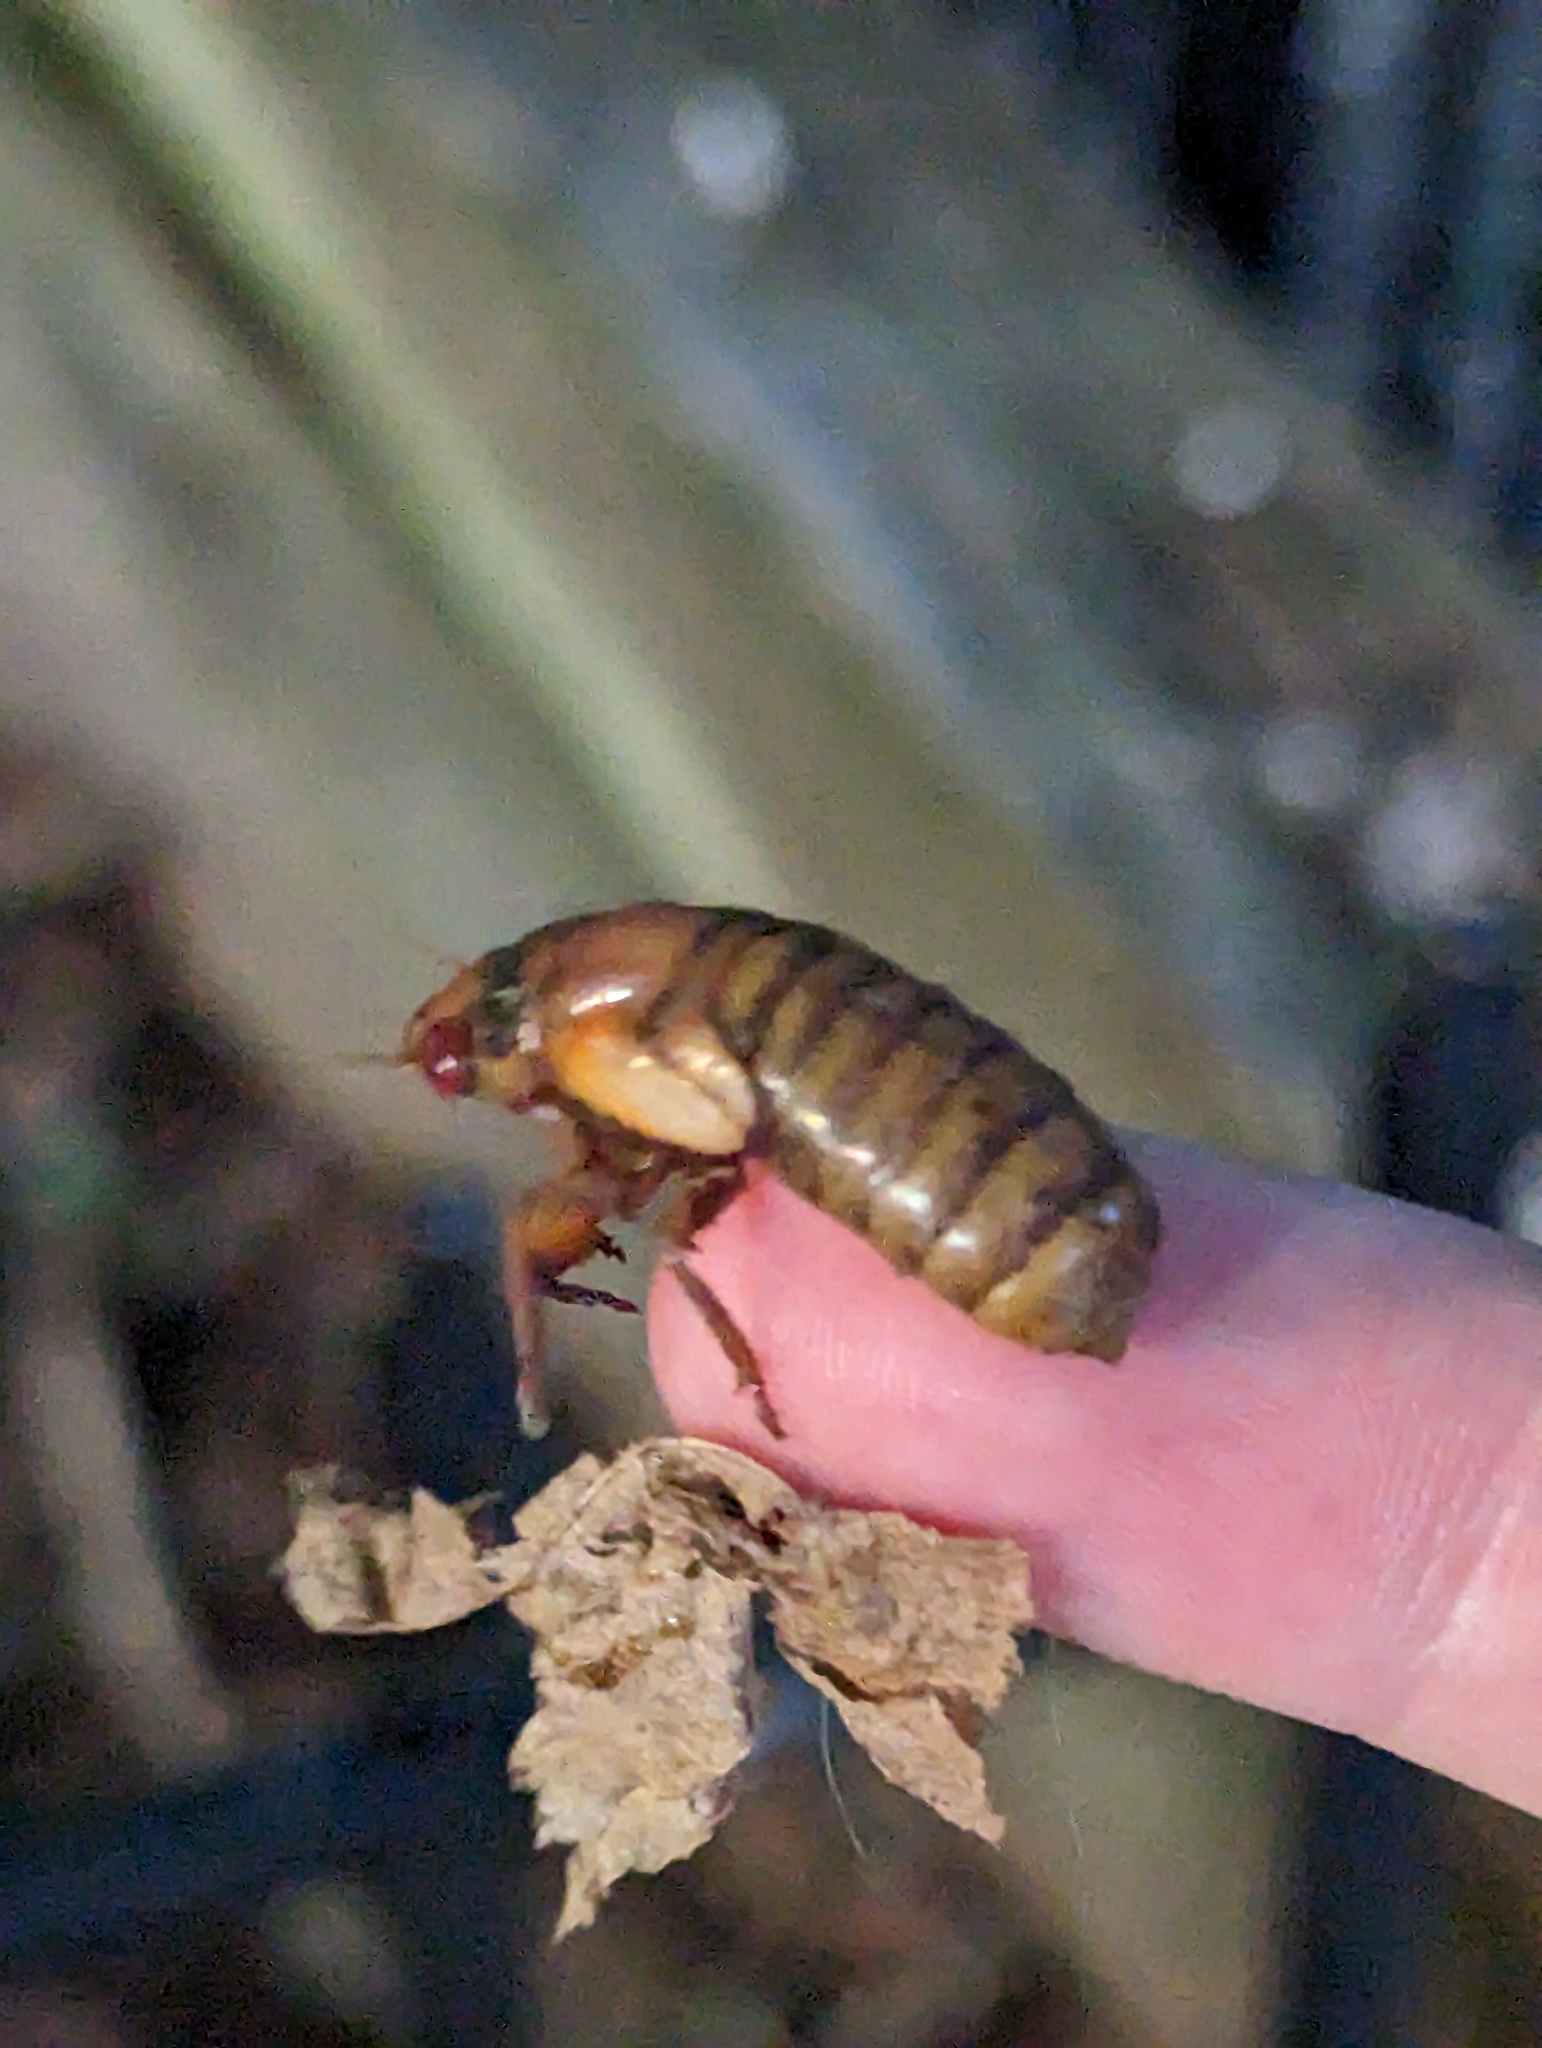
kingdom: Animalia
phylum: Arthropoda
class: Insecta
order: Hemiptera
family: Cicadidae
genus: Magicicada
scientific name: Magicicada
